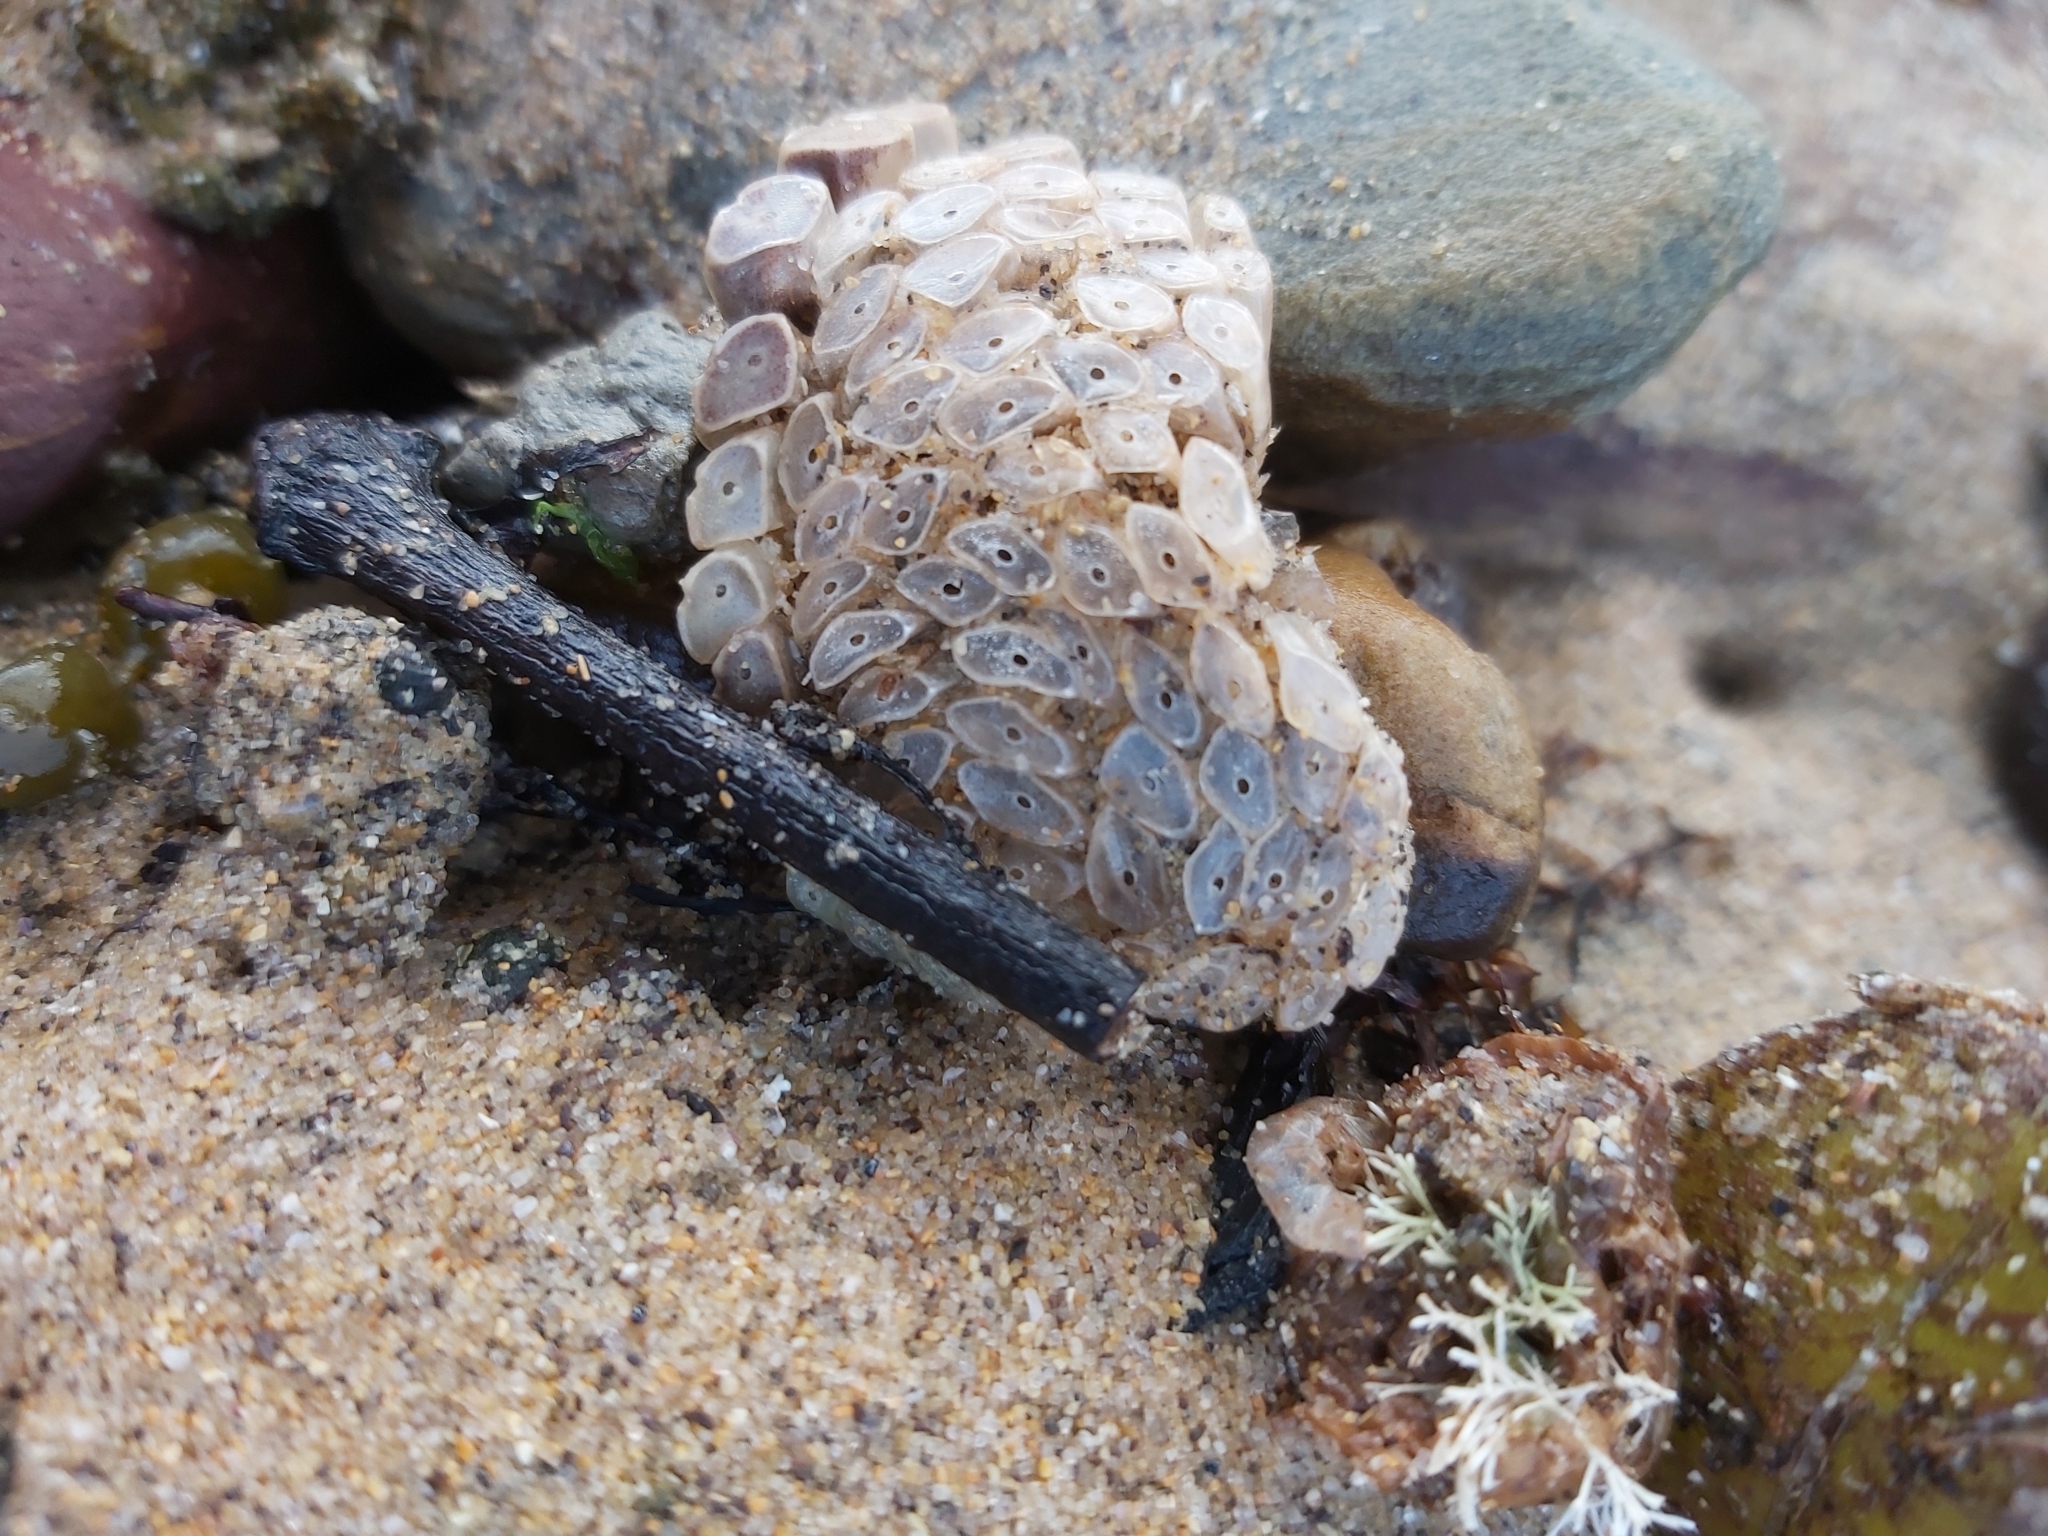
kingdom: Animalia
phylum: Mollusca
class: Gastropoda
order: Neogastropoda
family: Muricidae
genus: Dicathais
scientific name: Dicathais orbita
